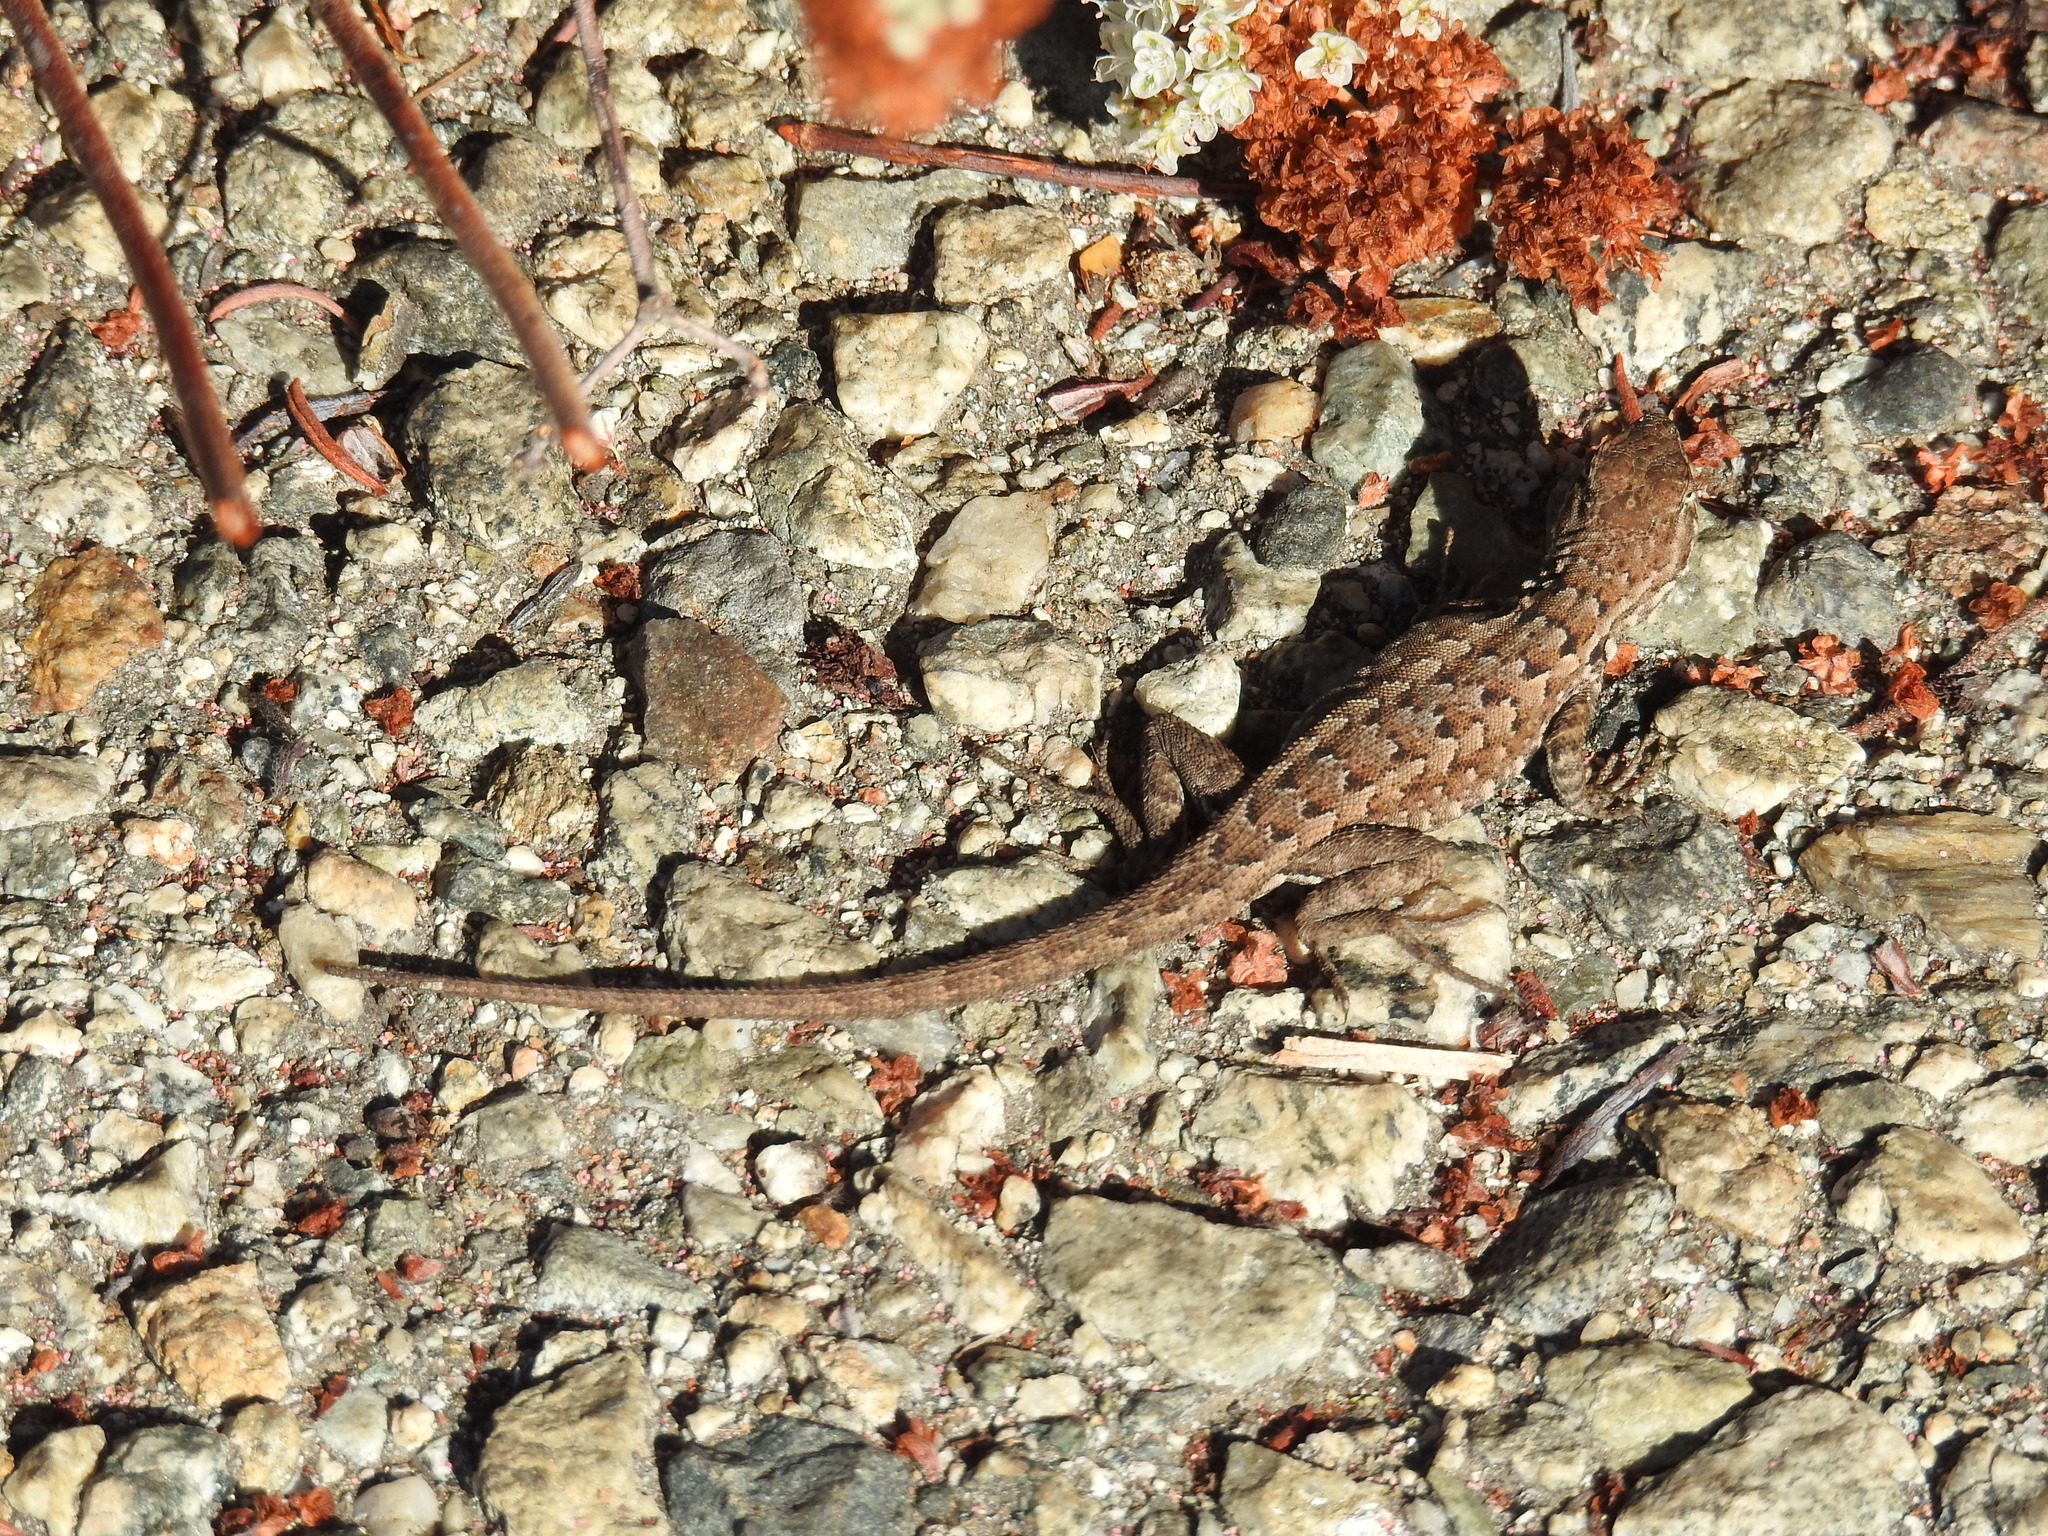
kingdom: Animalia
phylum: Chordata
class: Squamata
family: Phrynosomatidae
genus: Uta
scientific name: Uta stansburiana
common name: Side-blotched lizard
